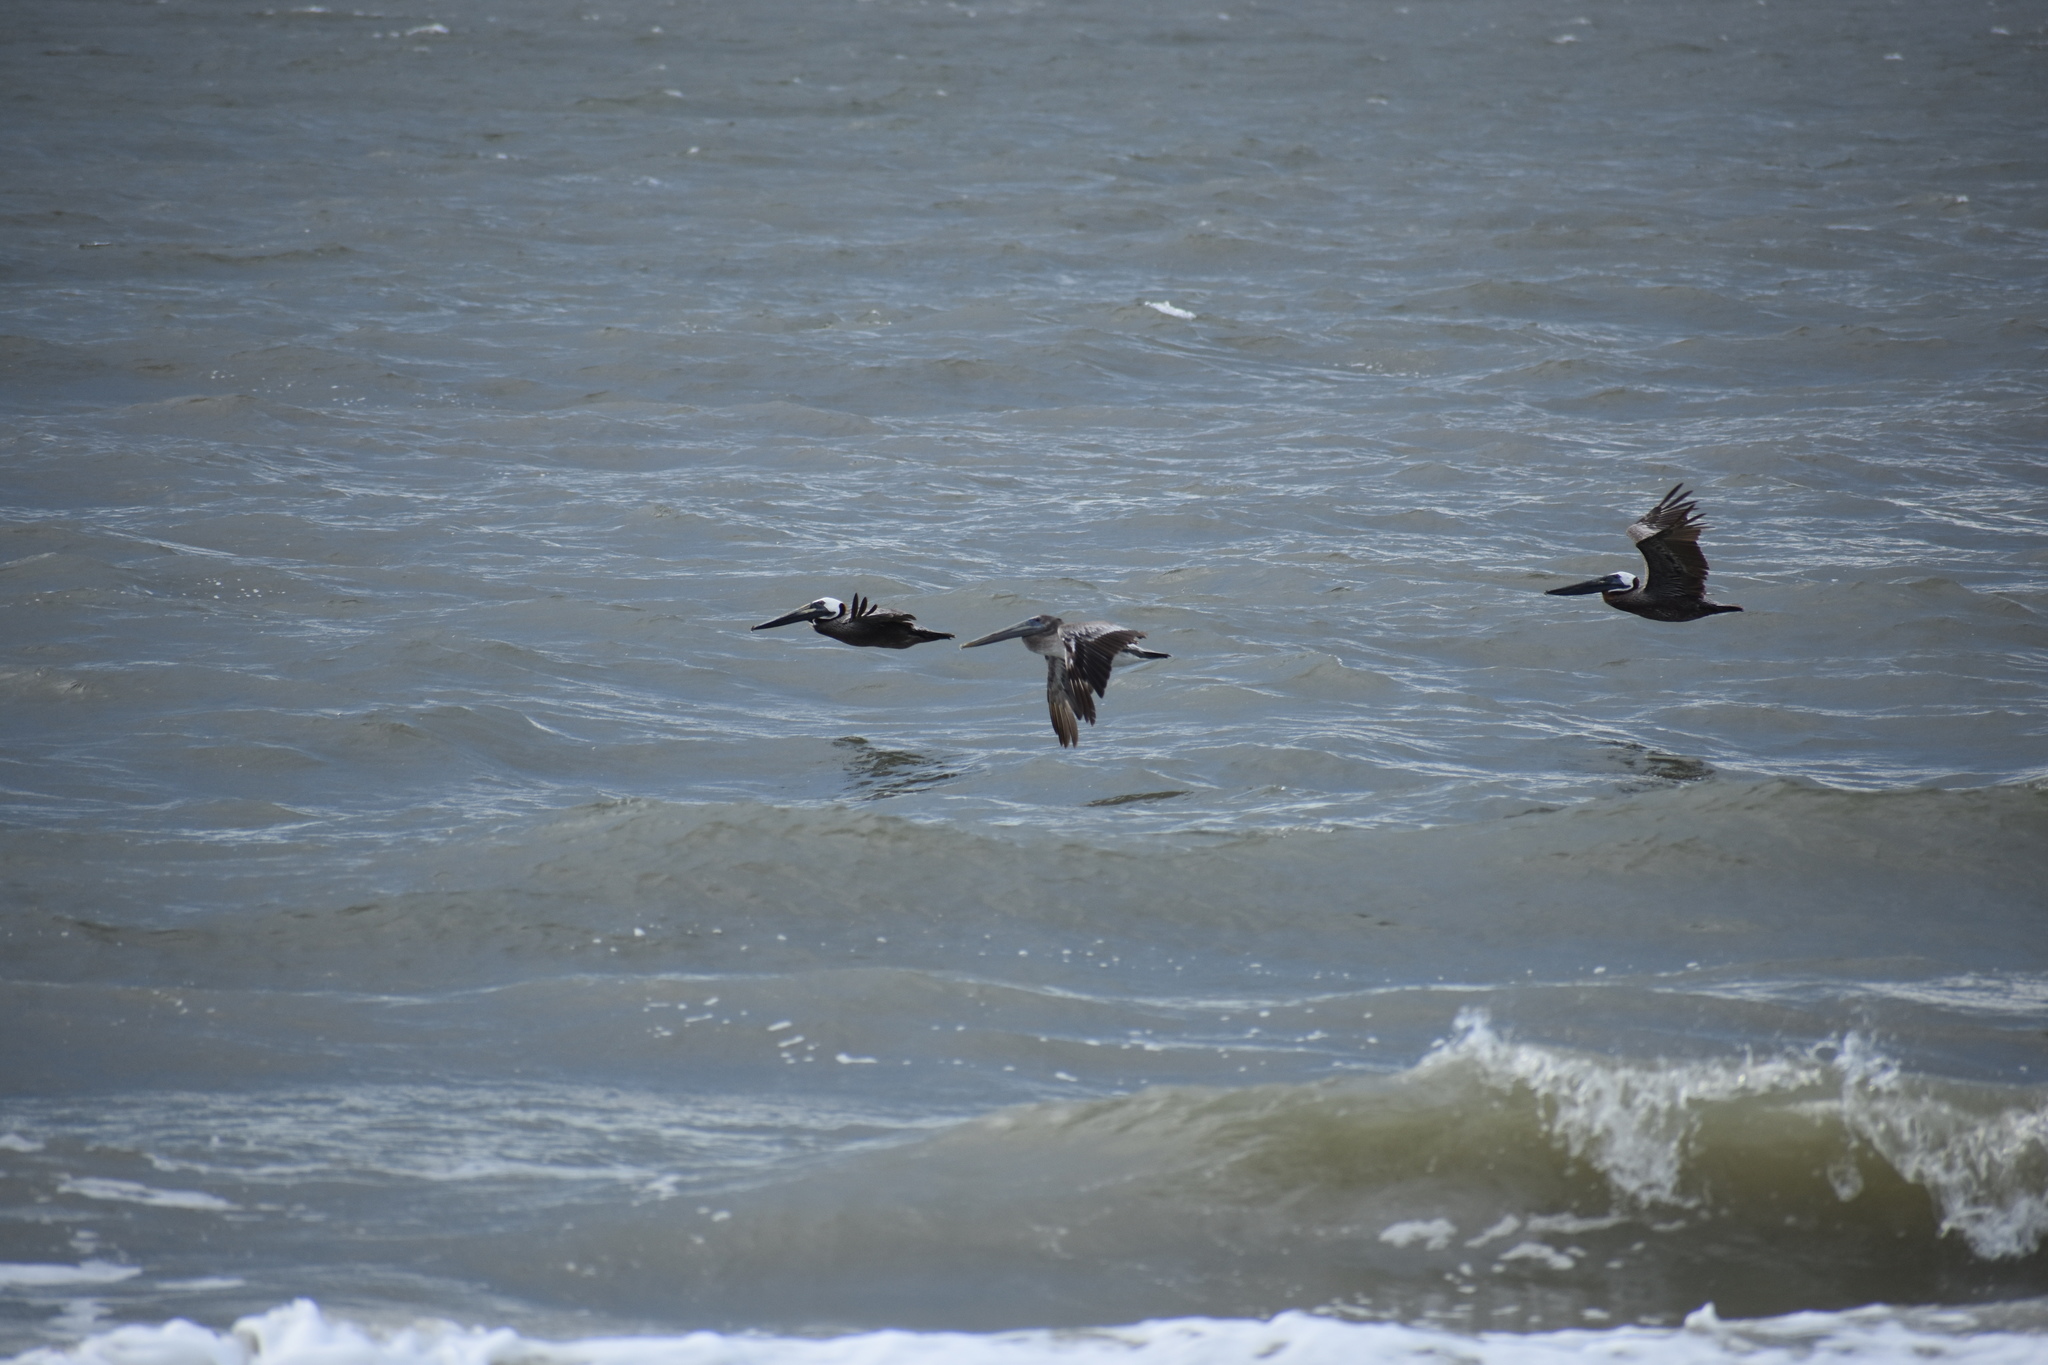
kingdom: Animalia
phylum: Chordata
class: Aves
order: Pelecaniformes
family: Pelecanidae
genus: Pelecanus
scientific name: Pelecanus occidentalis
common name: Brown pelican
